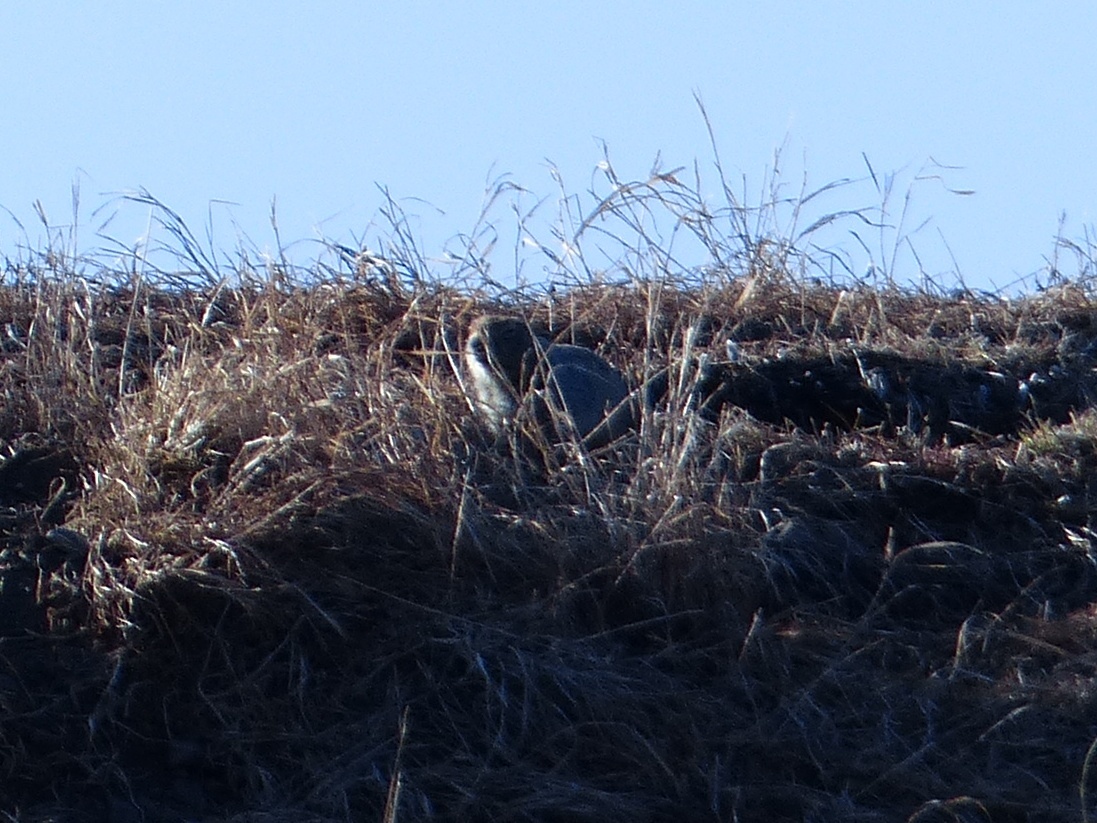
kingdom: Animalia
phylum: Chordata
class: Mammalia
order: Rodentia
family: Sciuridae
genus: Urocitellus
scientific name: Urocitellus parryii
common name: Arctic ground squirrel
